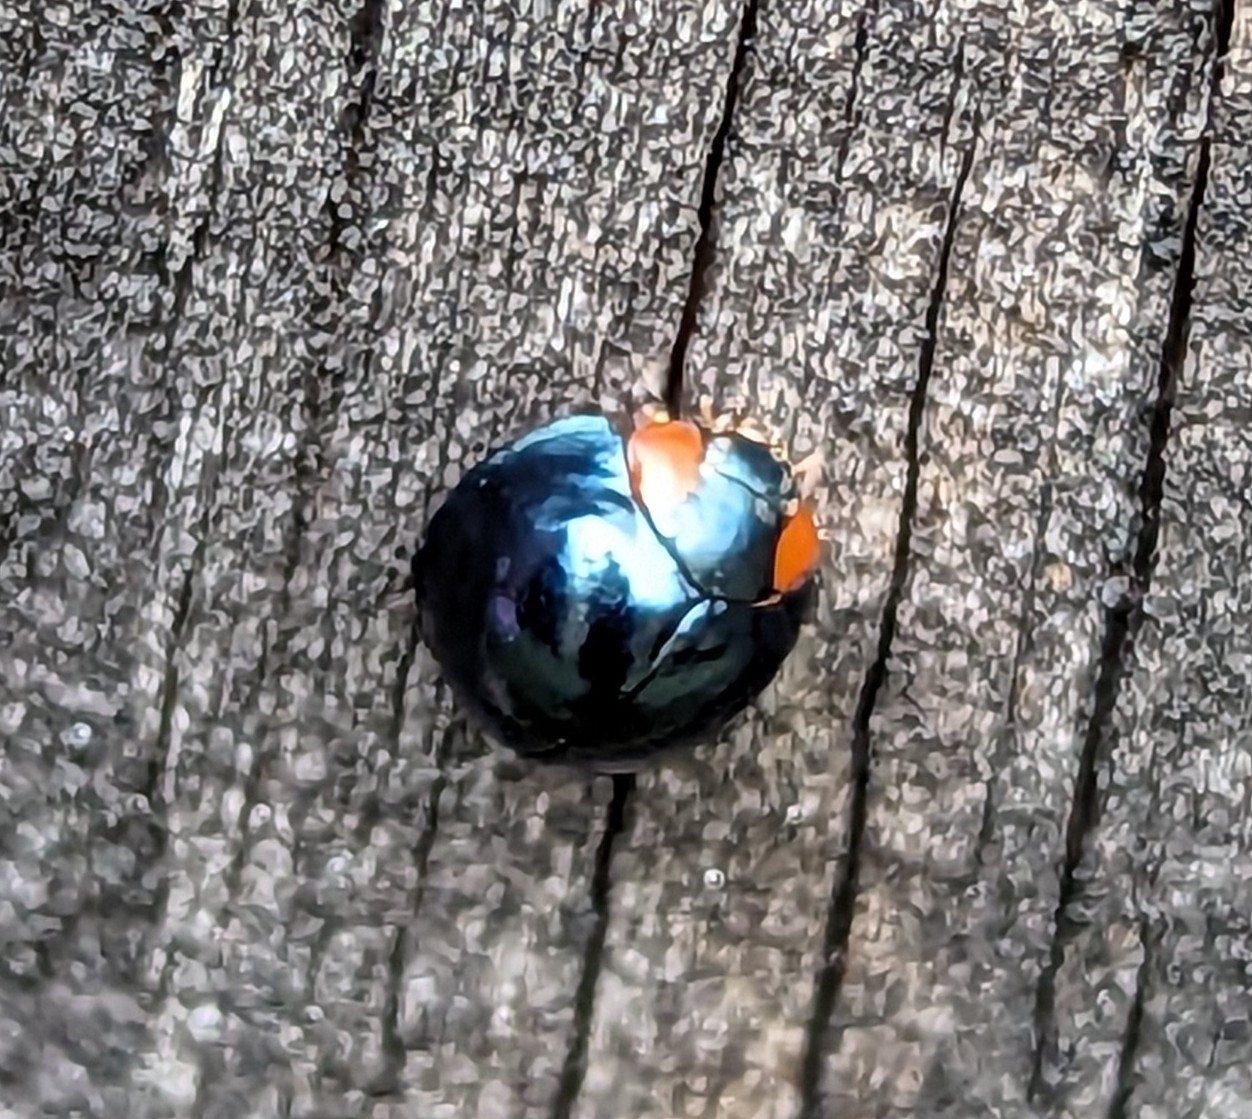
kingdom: Animalia
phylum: Arthropoda
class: Insecta
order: Coleoptera
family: Coccinellidae
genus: Curinus
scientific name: Curinus coeruleus
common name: Ladybird beetle
